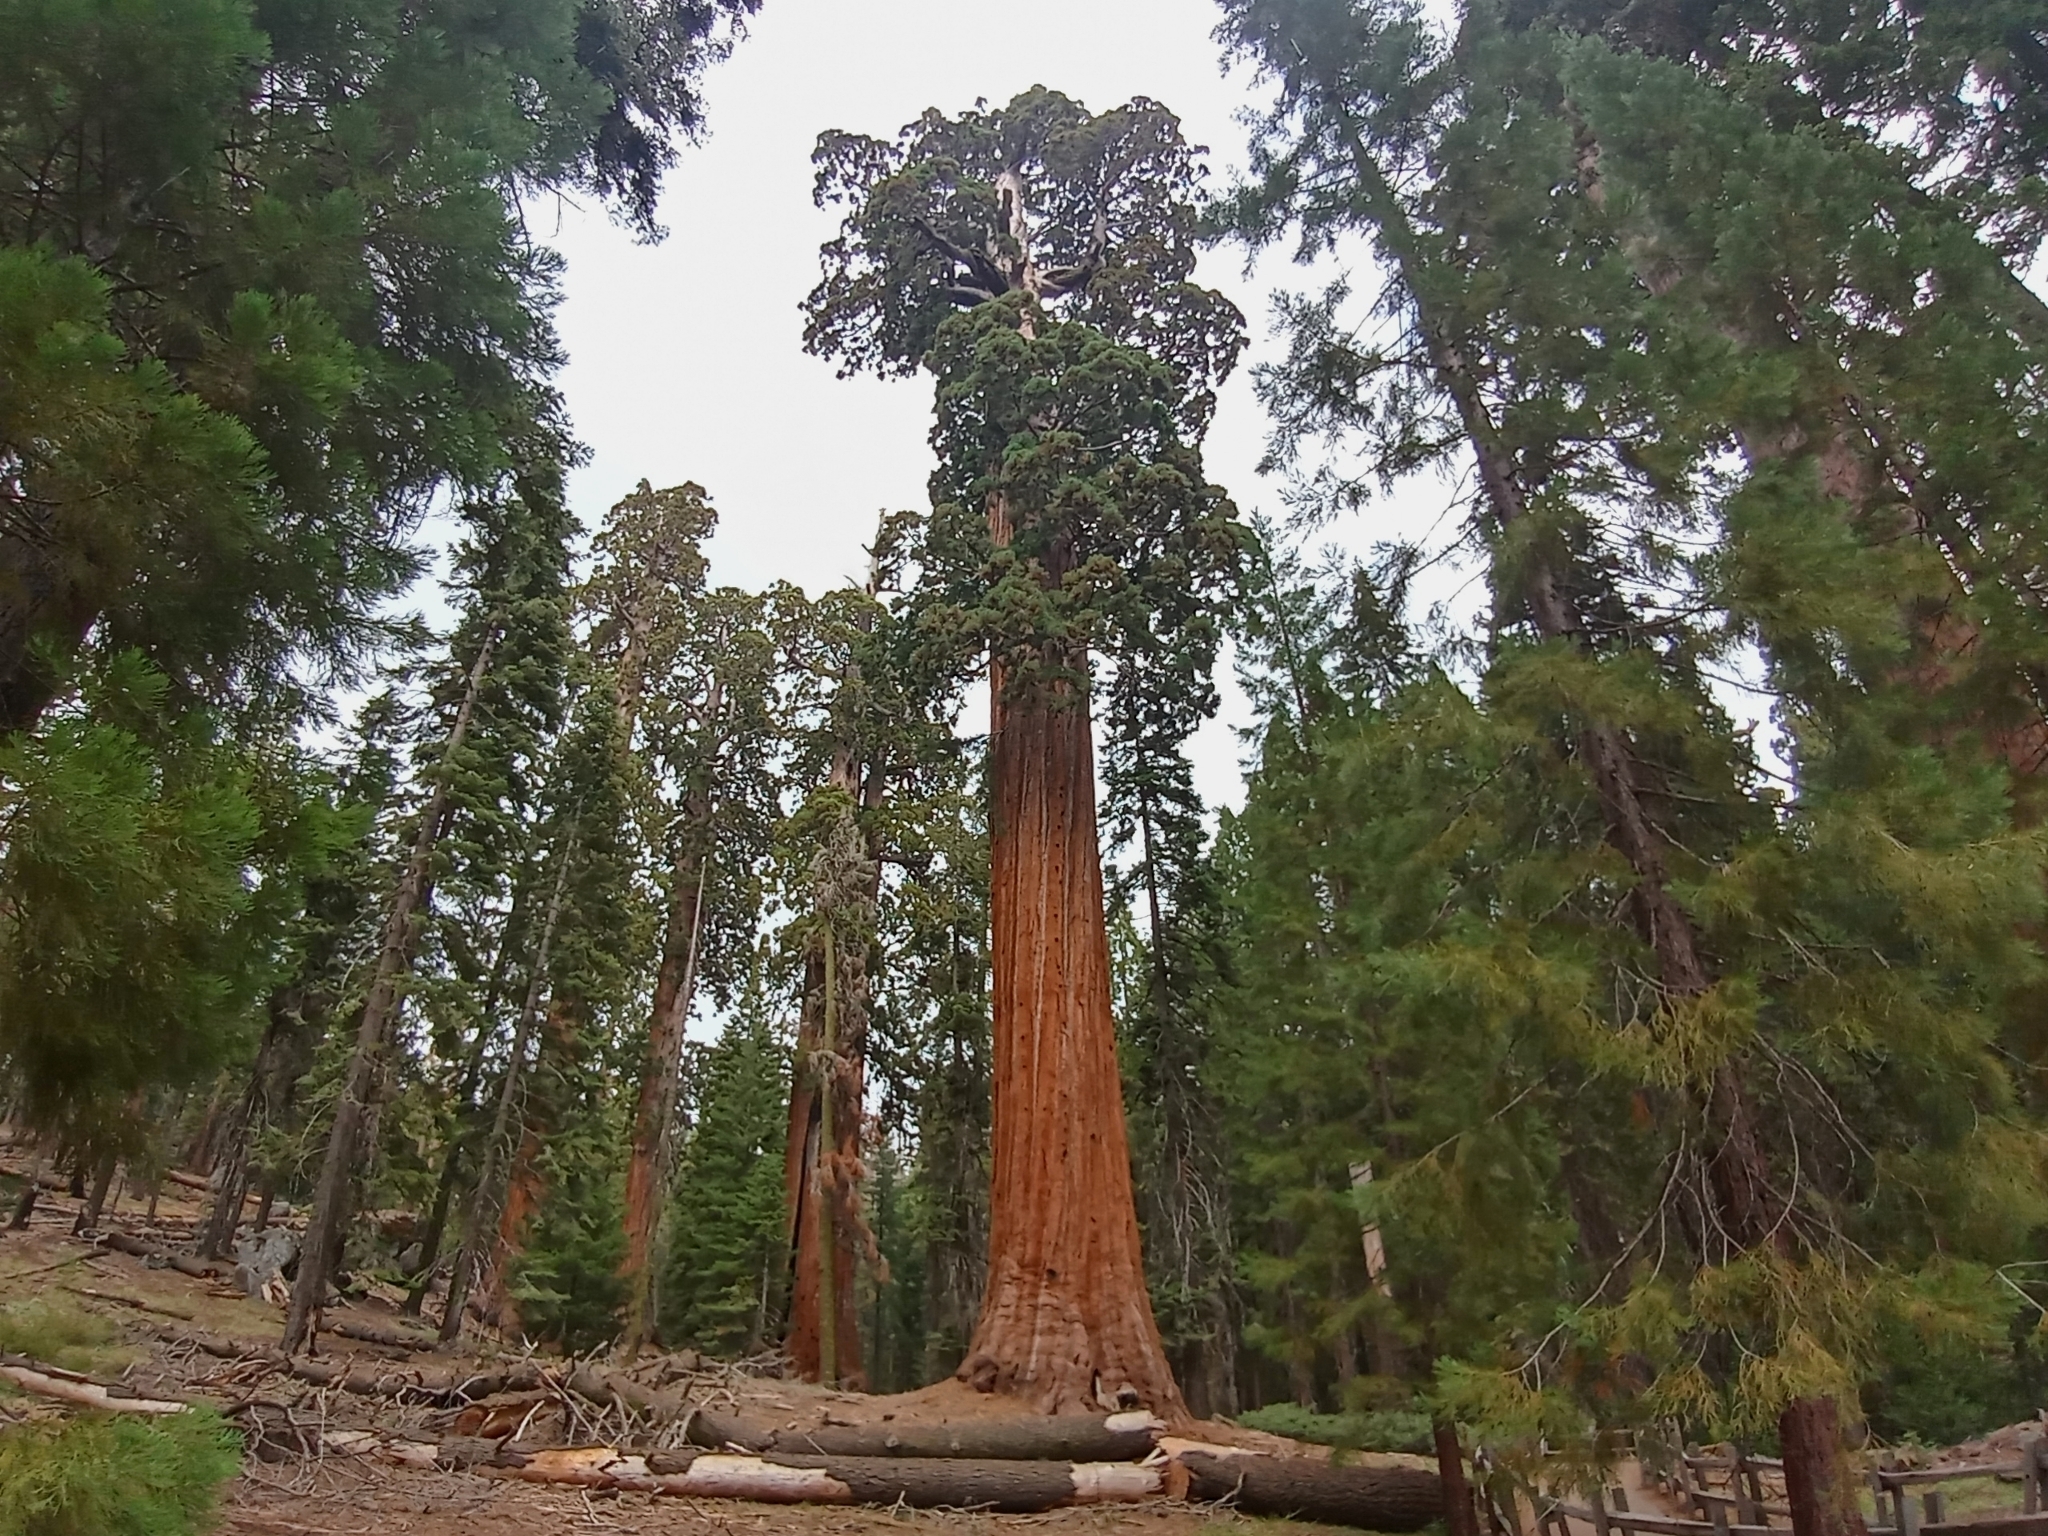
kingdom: Plantae
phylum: Tracheophyta
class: Pinopsida
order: Pinales
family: Cupressaceae
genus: Sequoiadendron
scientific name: Sequoiadendron giganteum
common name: Wellingtonia
